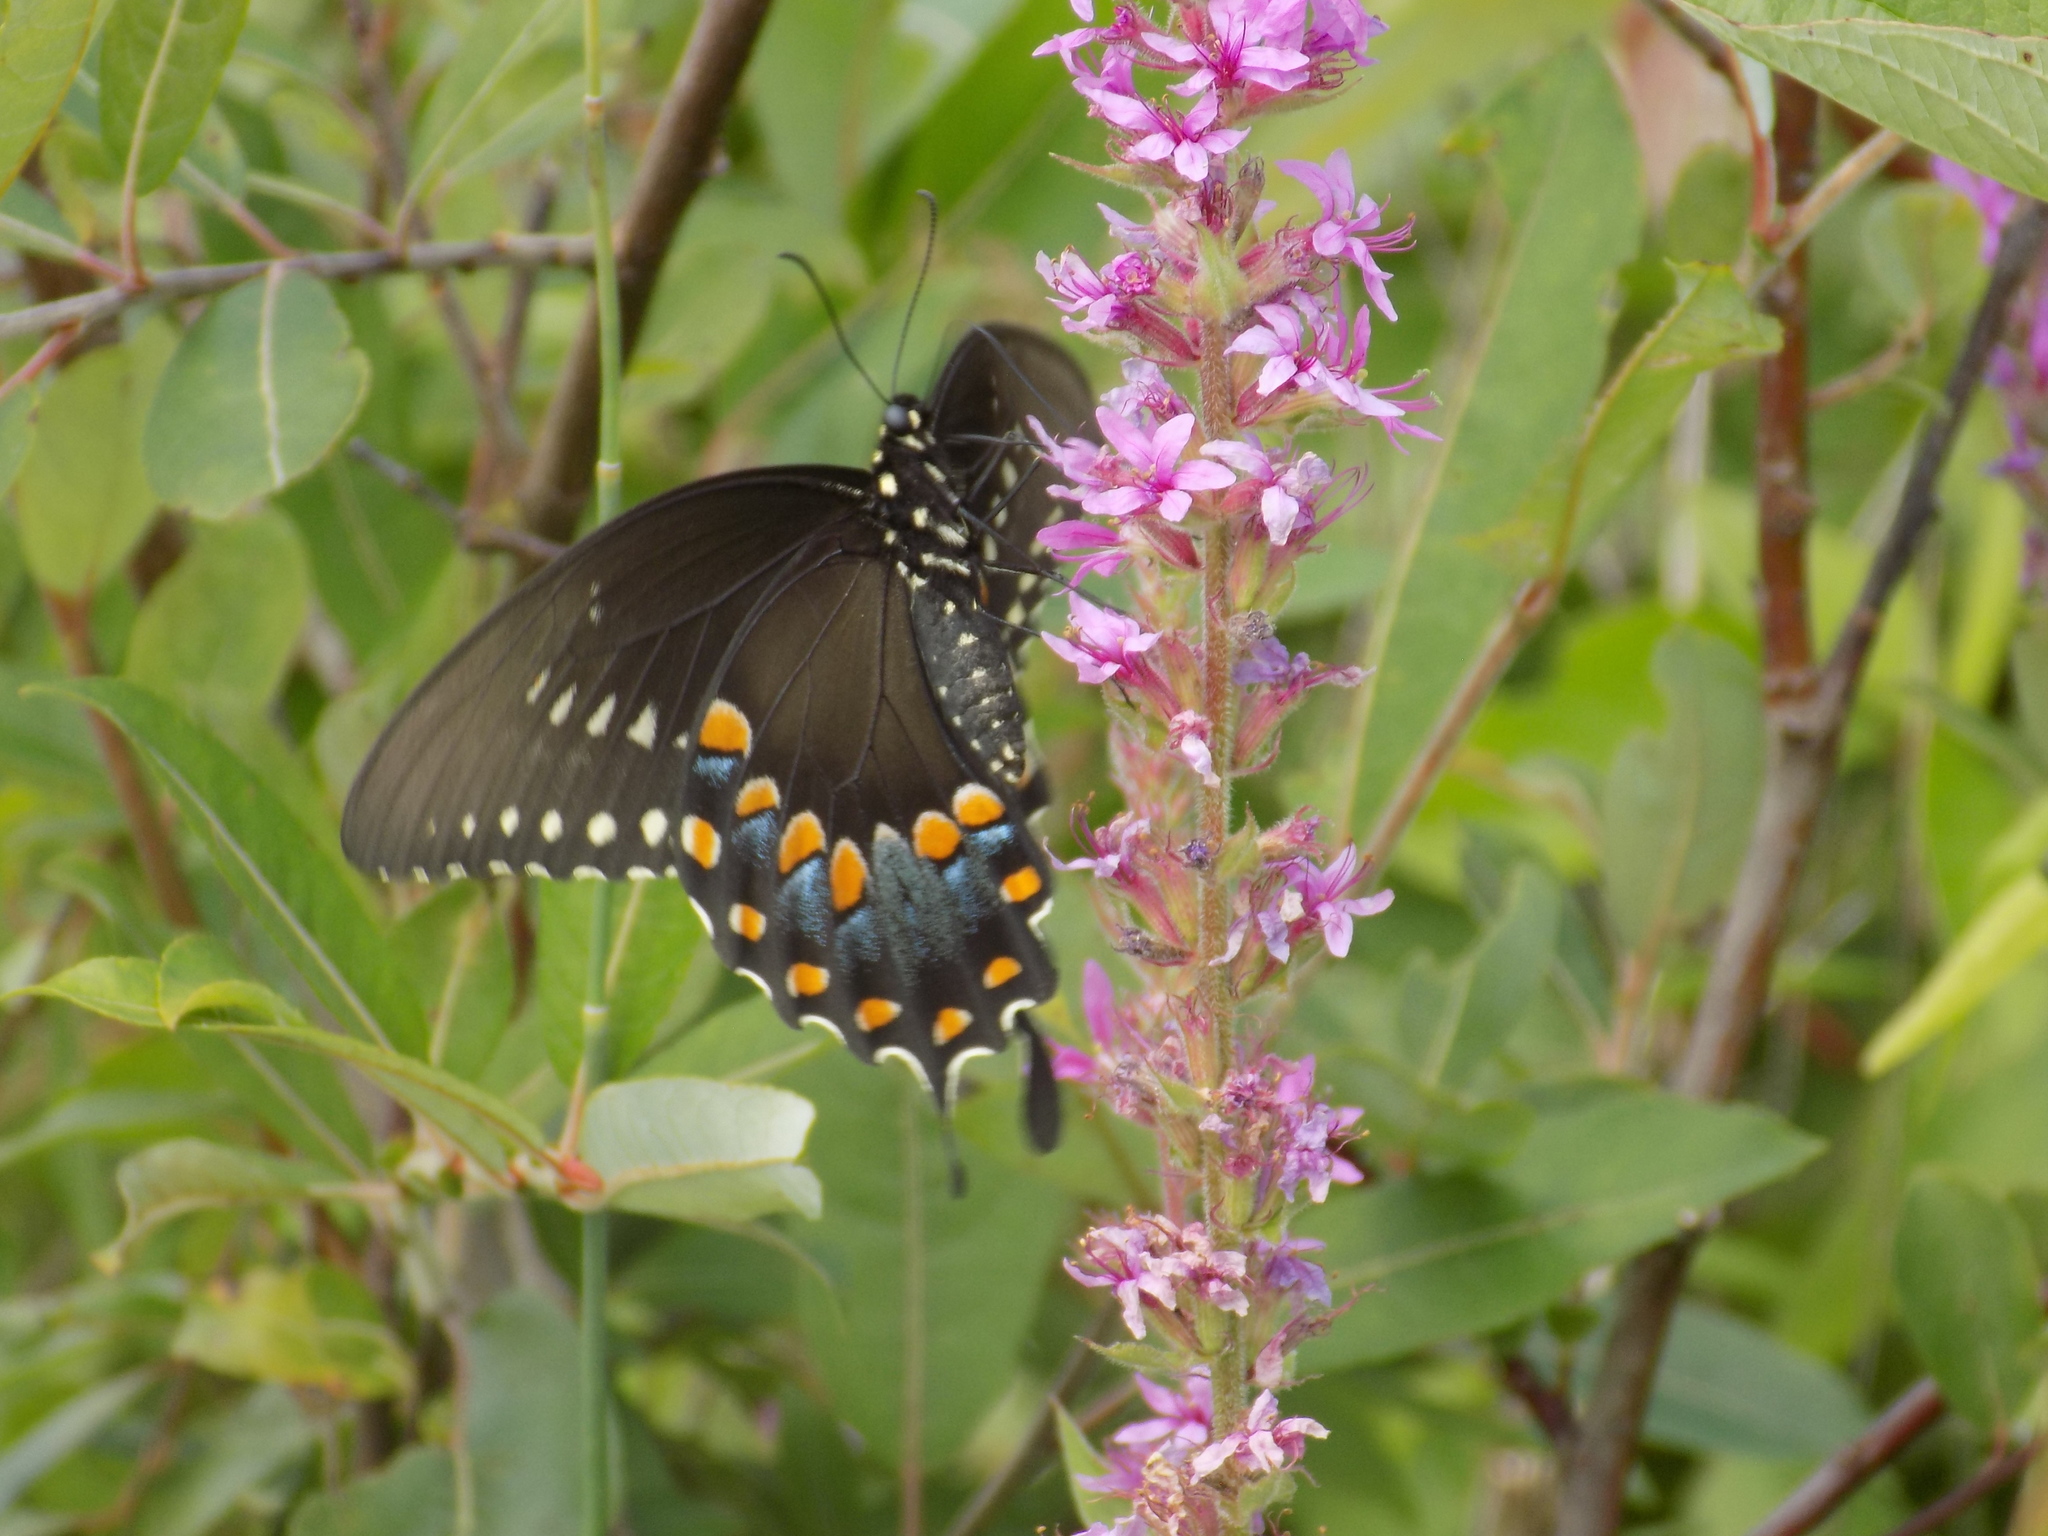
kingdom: Animalia
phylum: Arthropoda
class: Insecta
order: Lepidoptera
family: Papilionidae
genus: Papilio
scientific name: Papilio troilus
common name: Spicebush swallowtail
